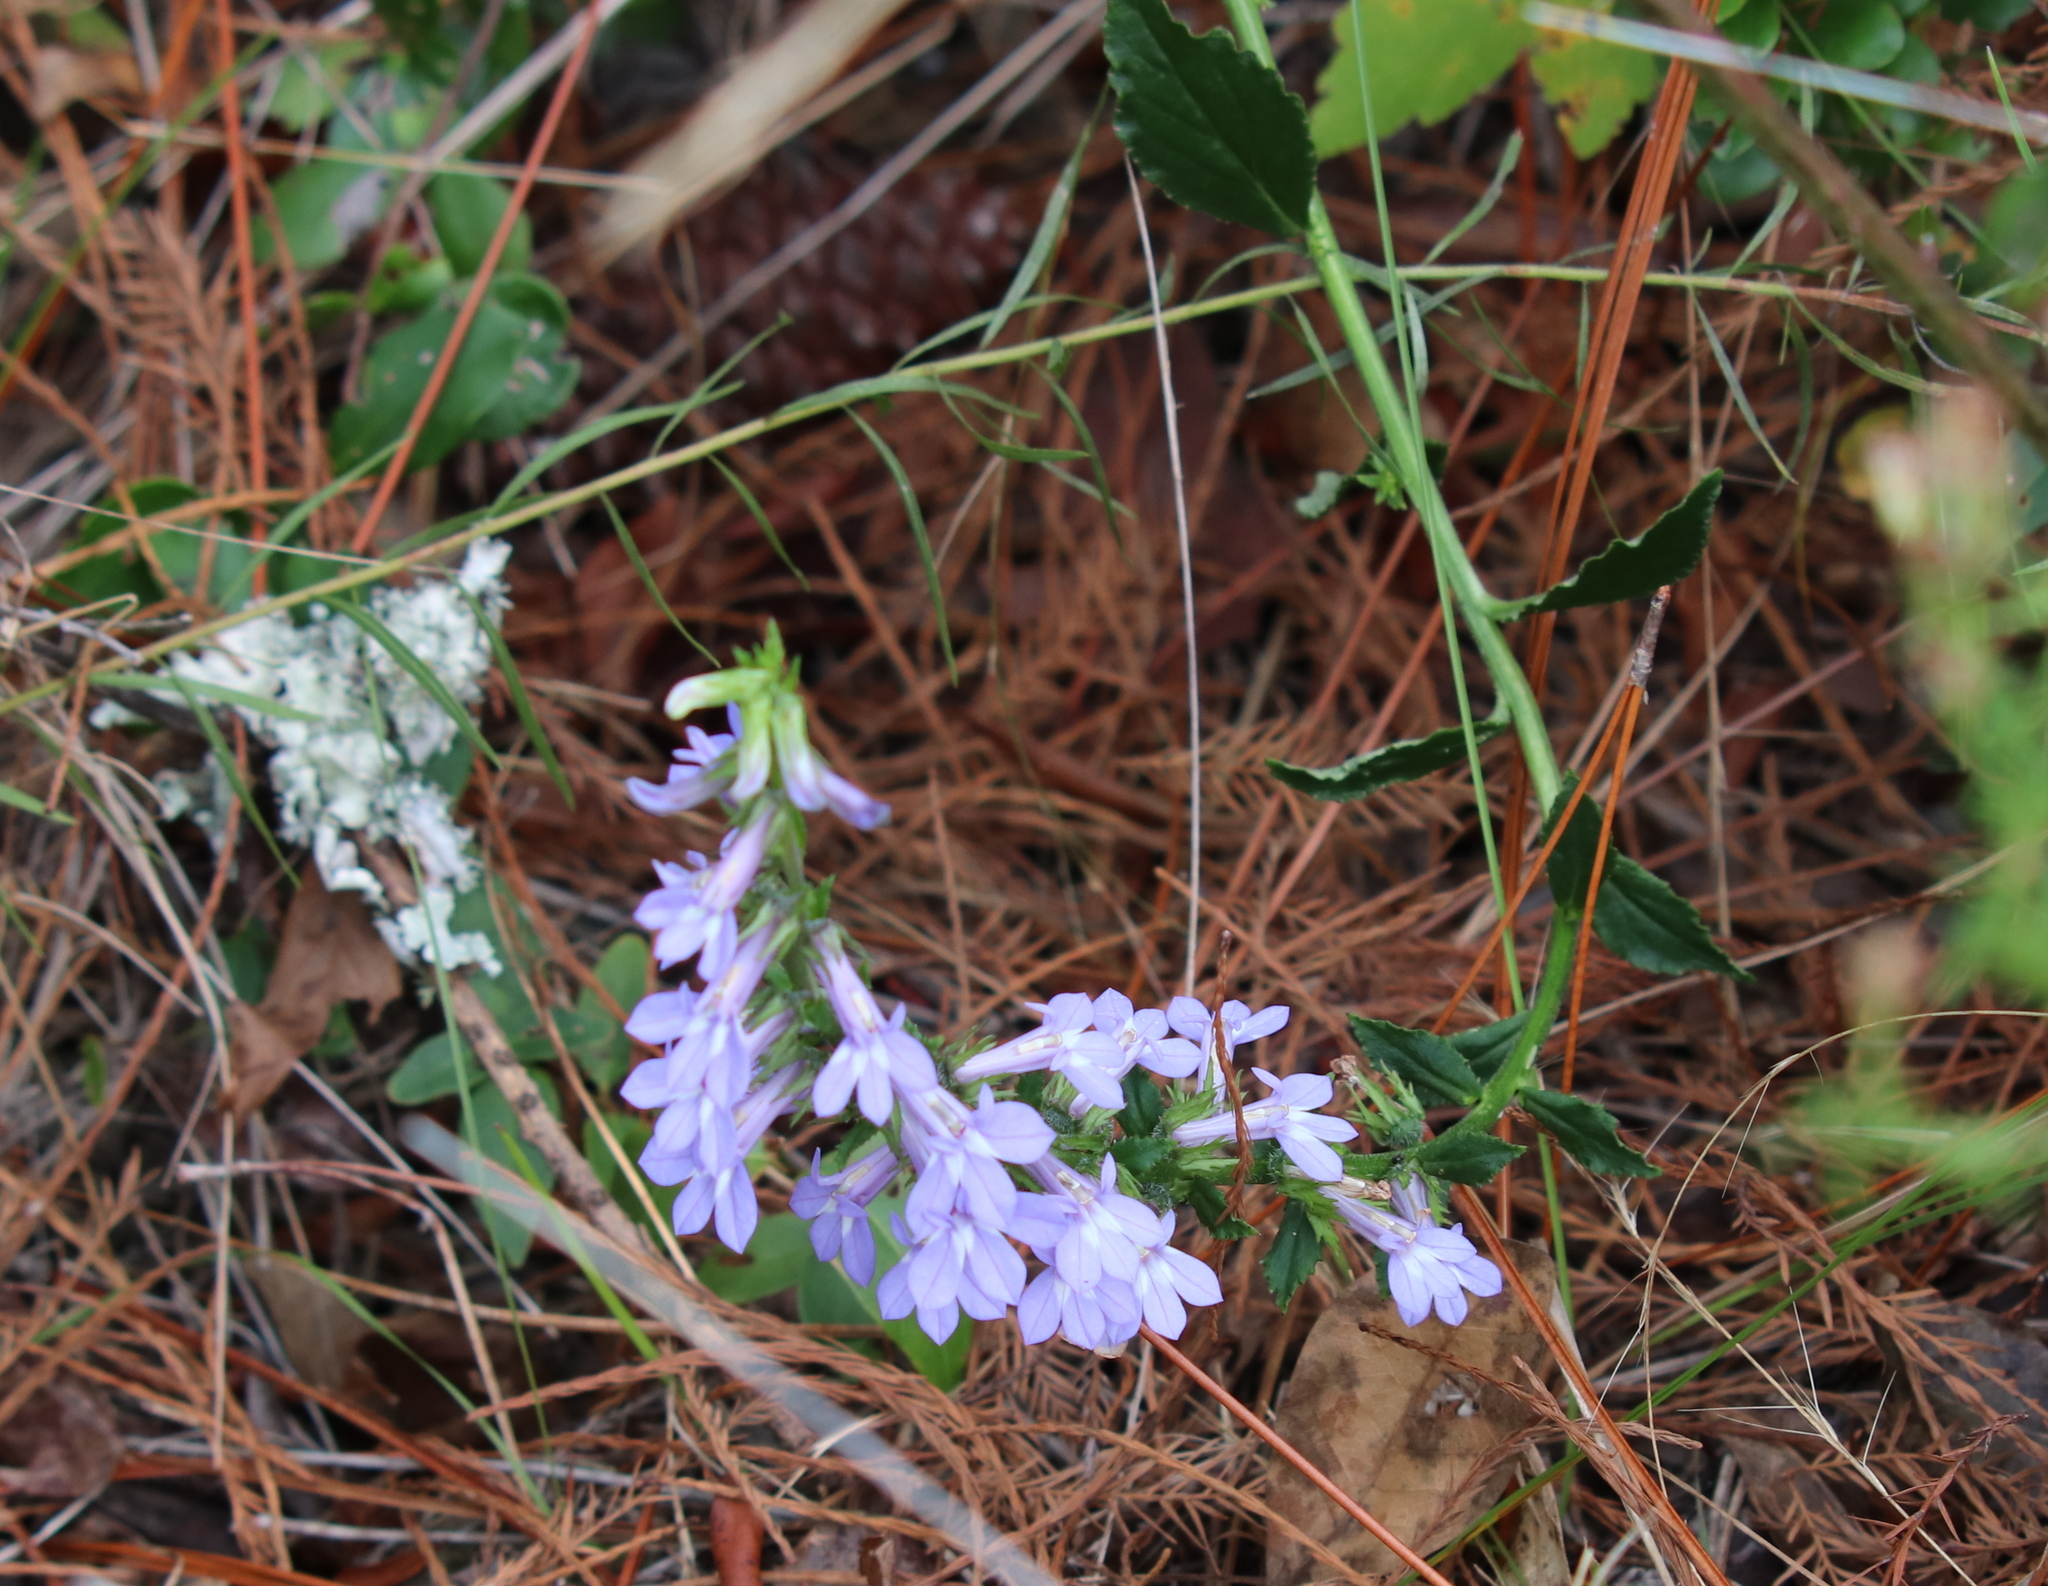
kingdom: Plantae
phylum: Tracheophyta
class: Magnoliopsida
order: Asterales
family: Campanulaceae
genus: Lobelia
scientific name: Lobelia rogersii
